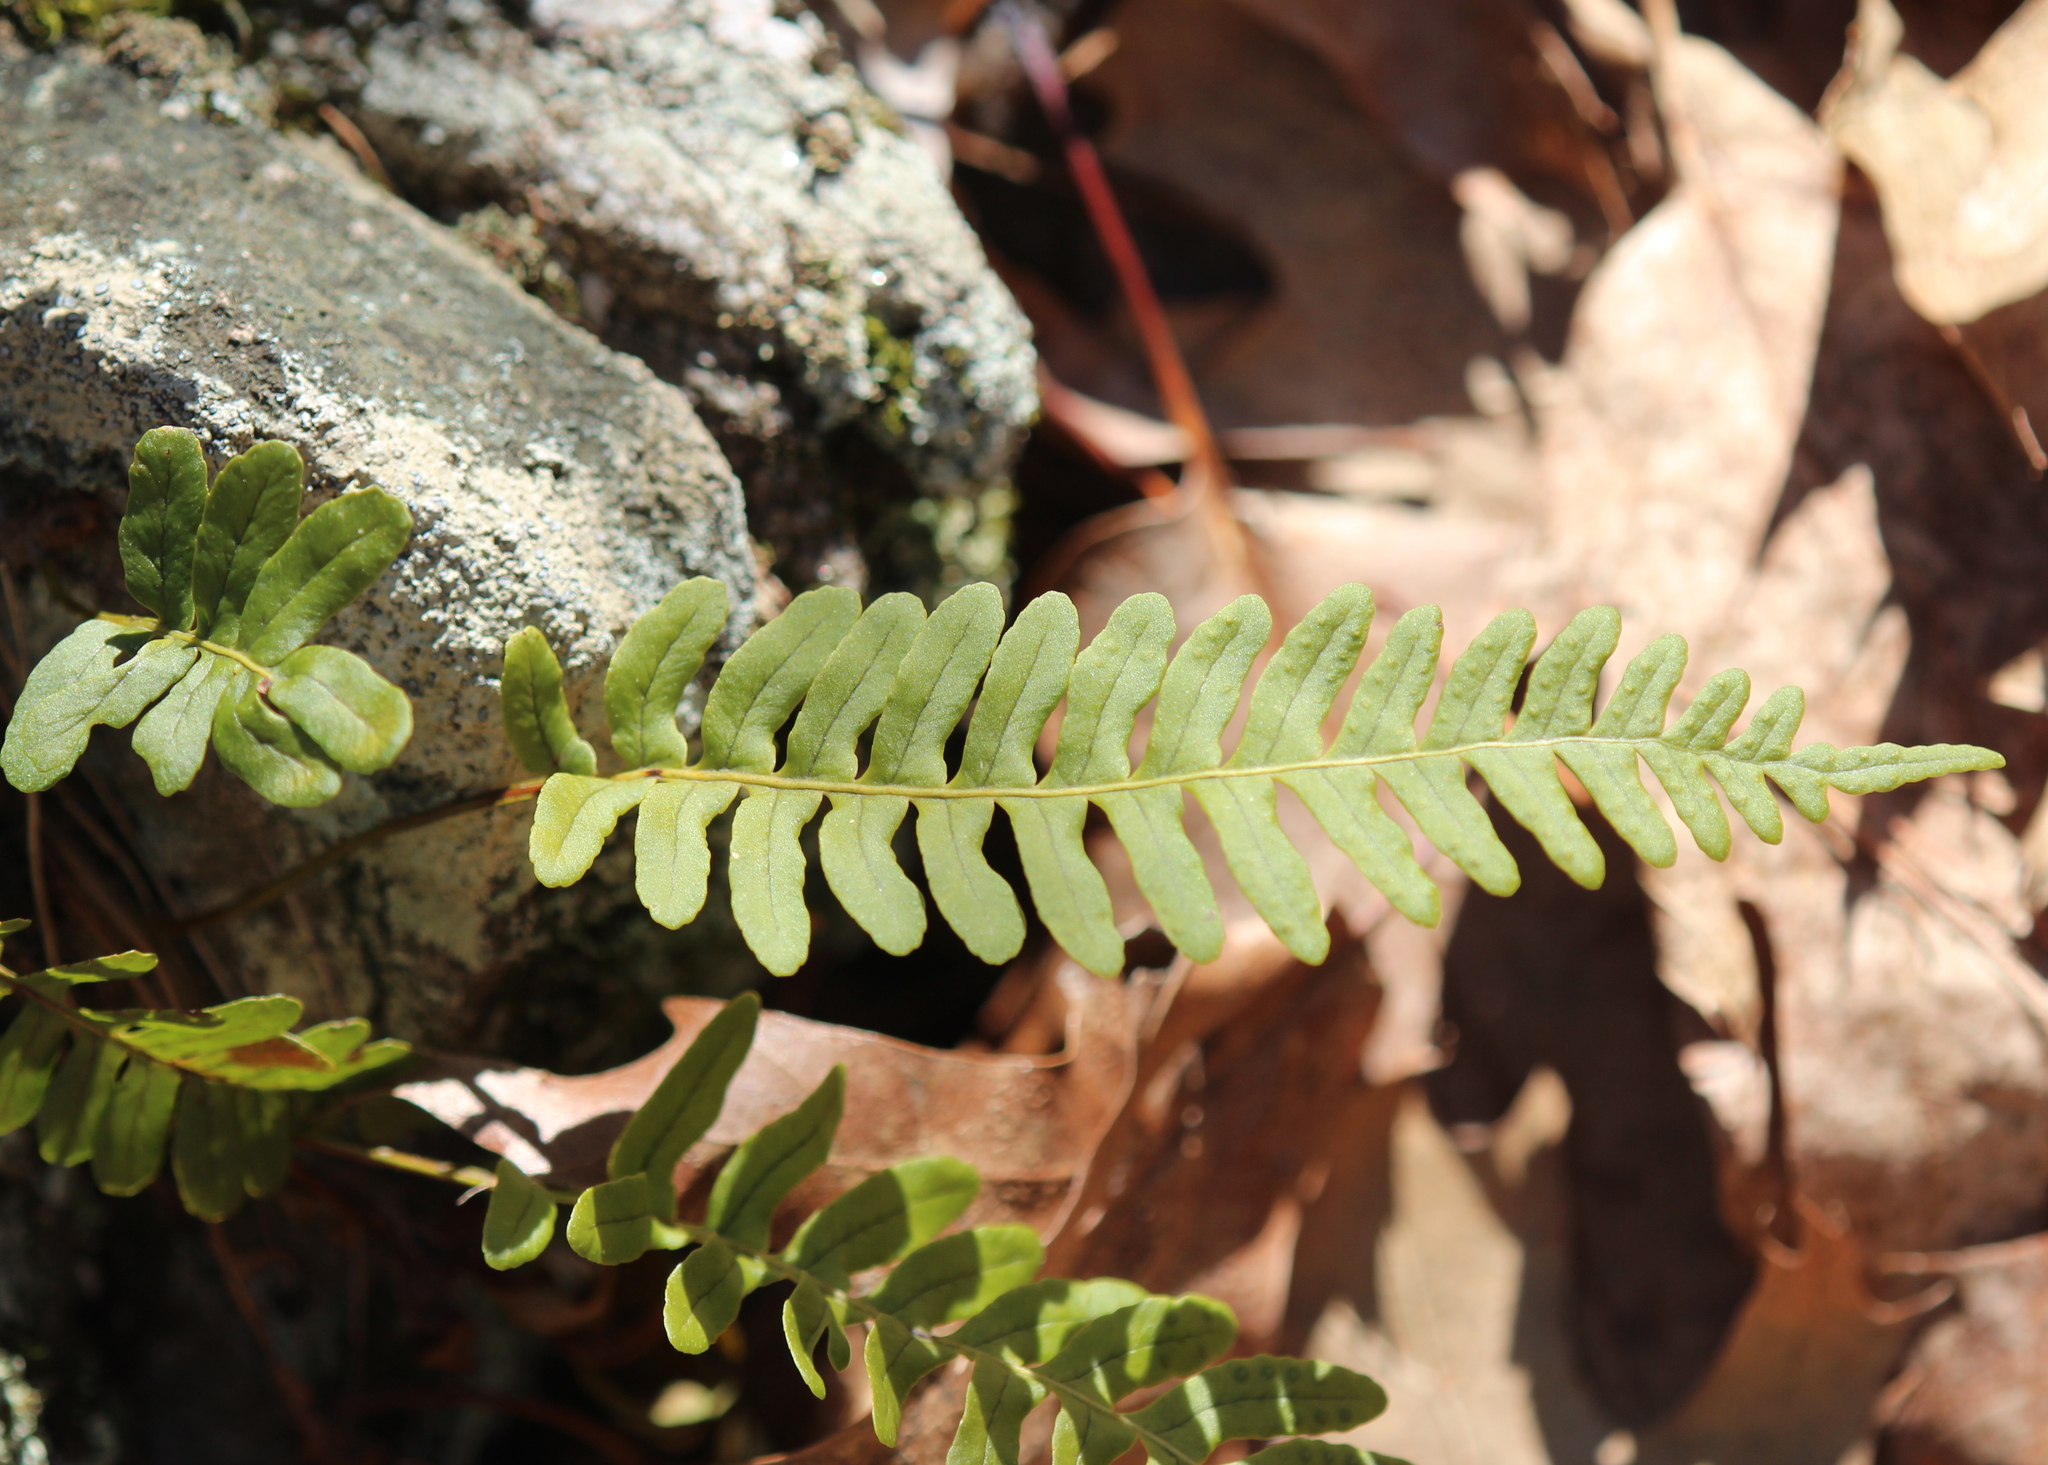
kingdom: Plantae
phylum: Tracheophyta
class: Polypodiopsida
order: Polypodiales
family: Polypodiaceae
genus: Polypodium
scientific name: Polypodium virginianum
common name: American wall fern
